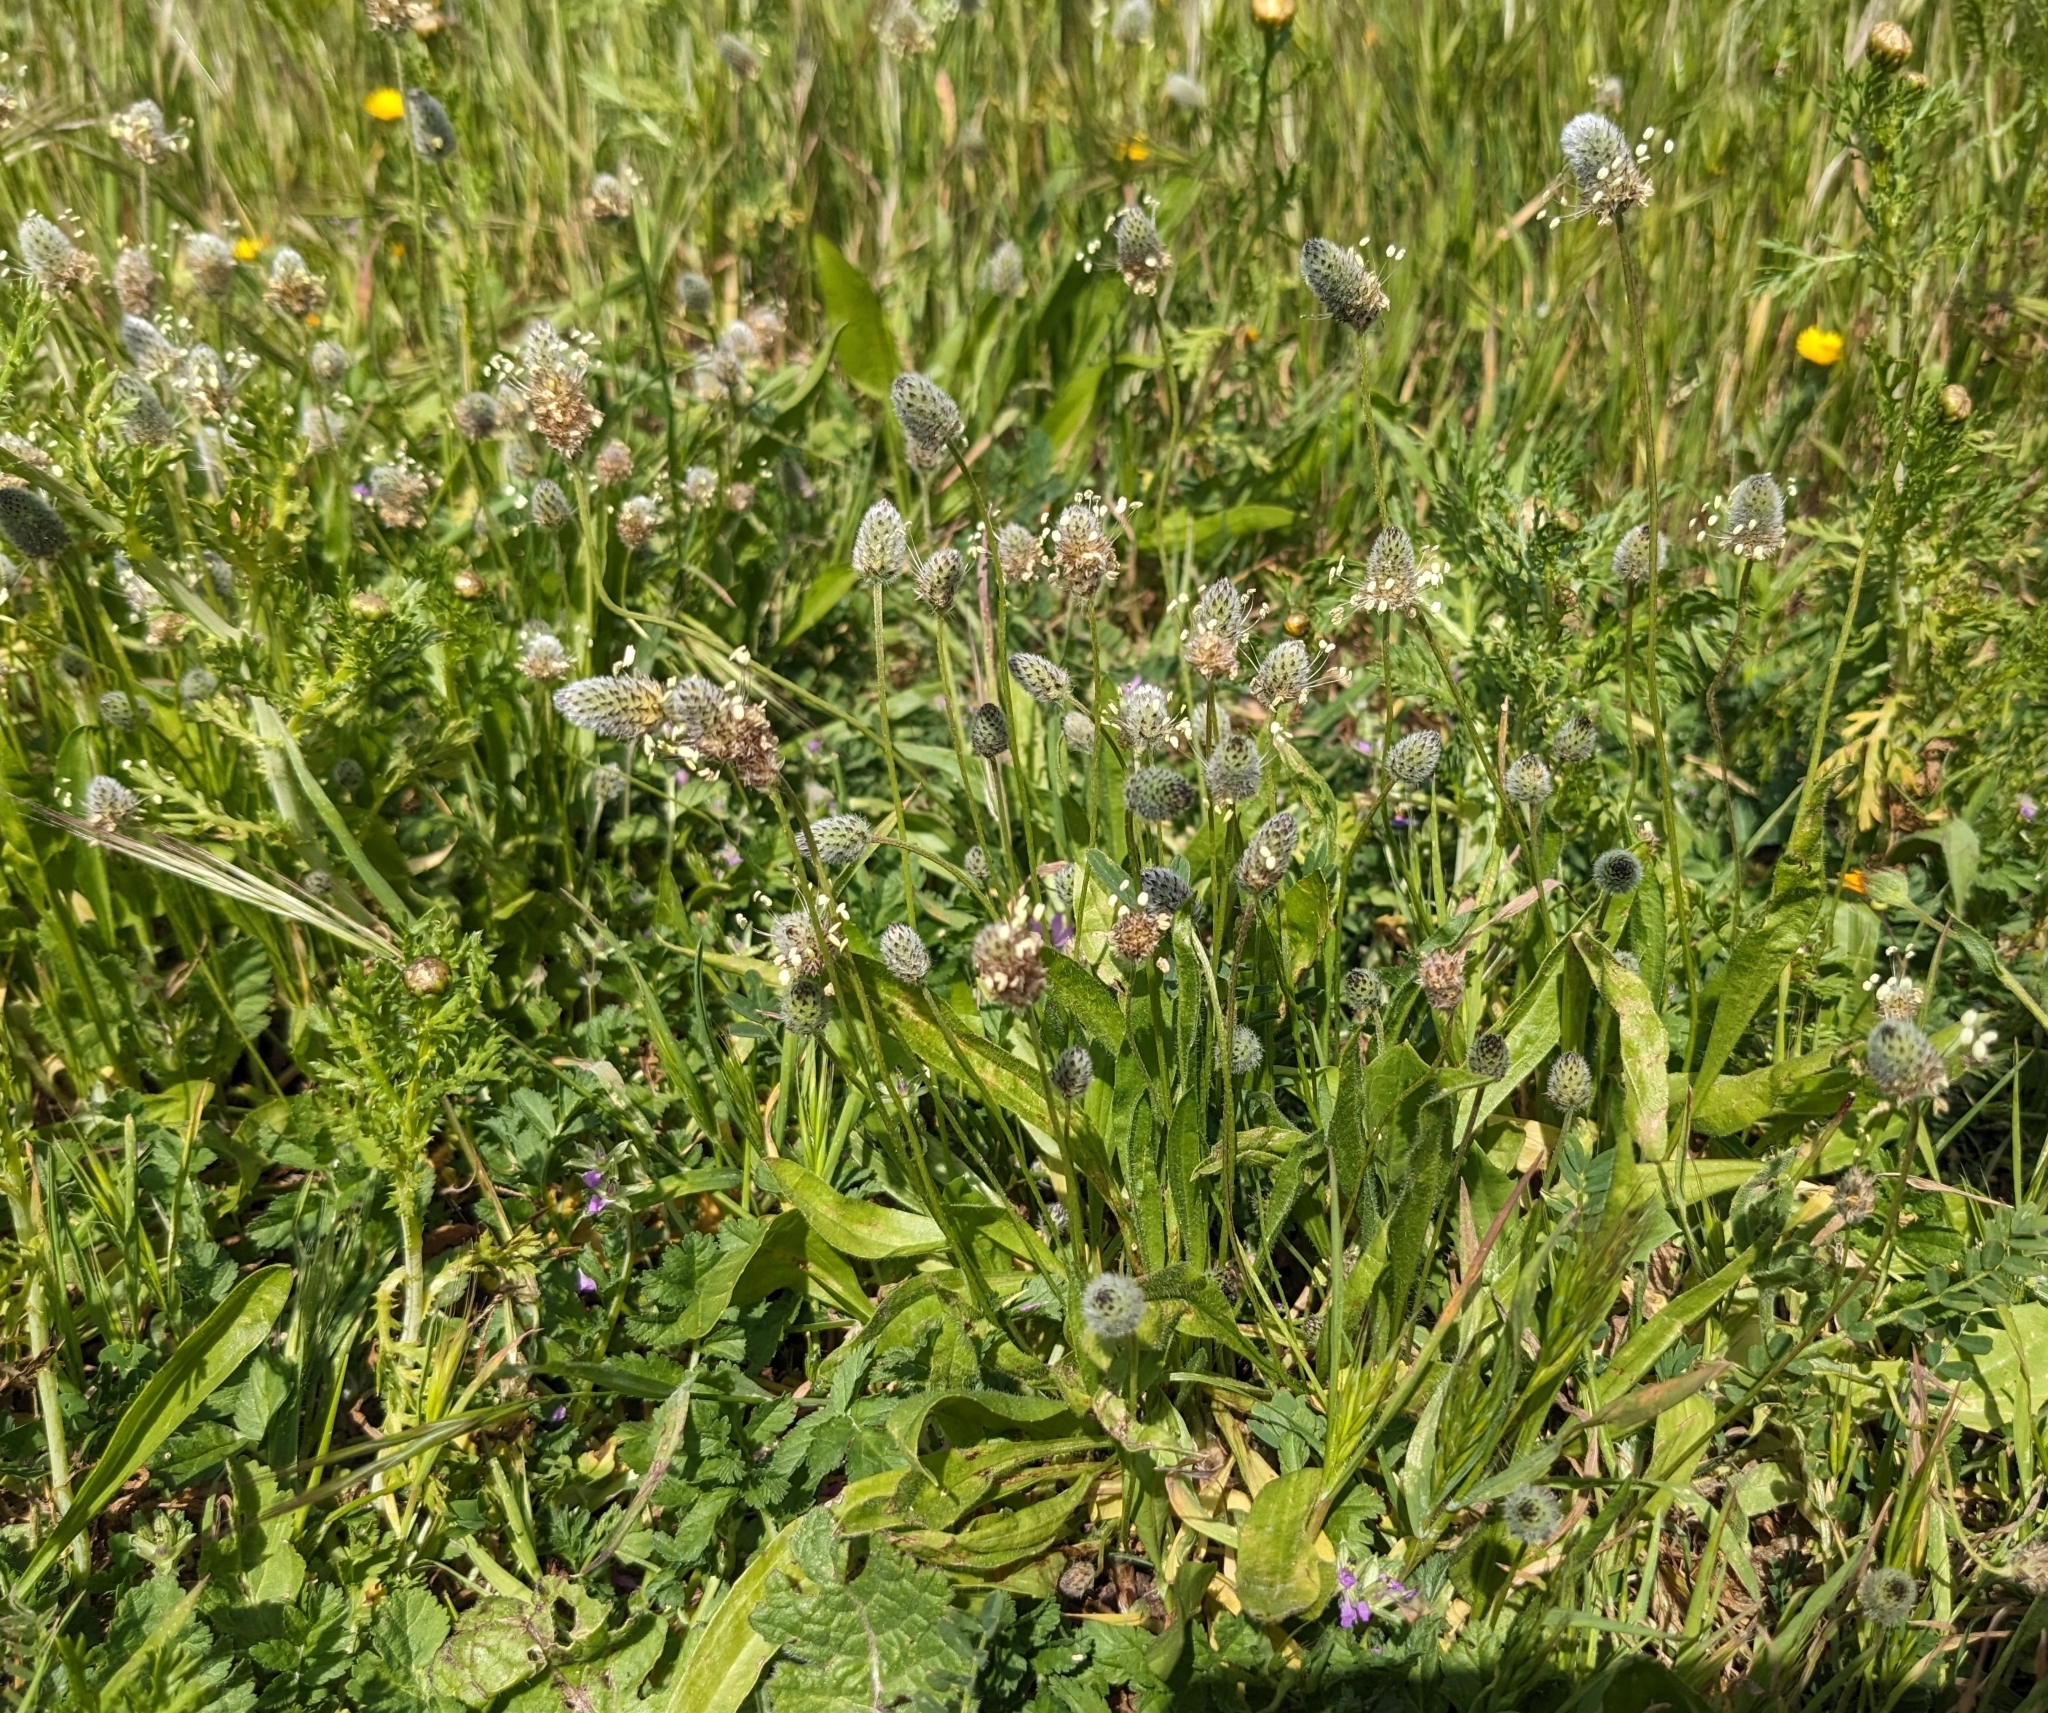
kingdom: Plantae
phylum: Tracheophyta
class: Magnoliopsida
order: Lamiales
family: Plantaginaceae
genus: Plantago
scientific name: Plantago lagopus
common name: Hare-foot plantain
